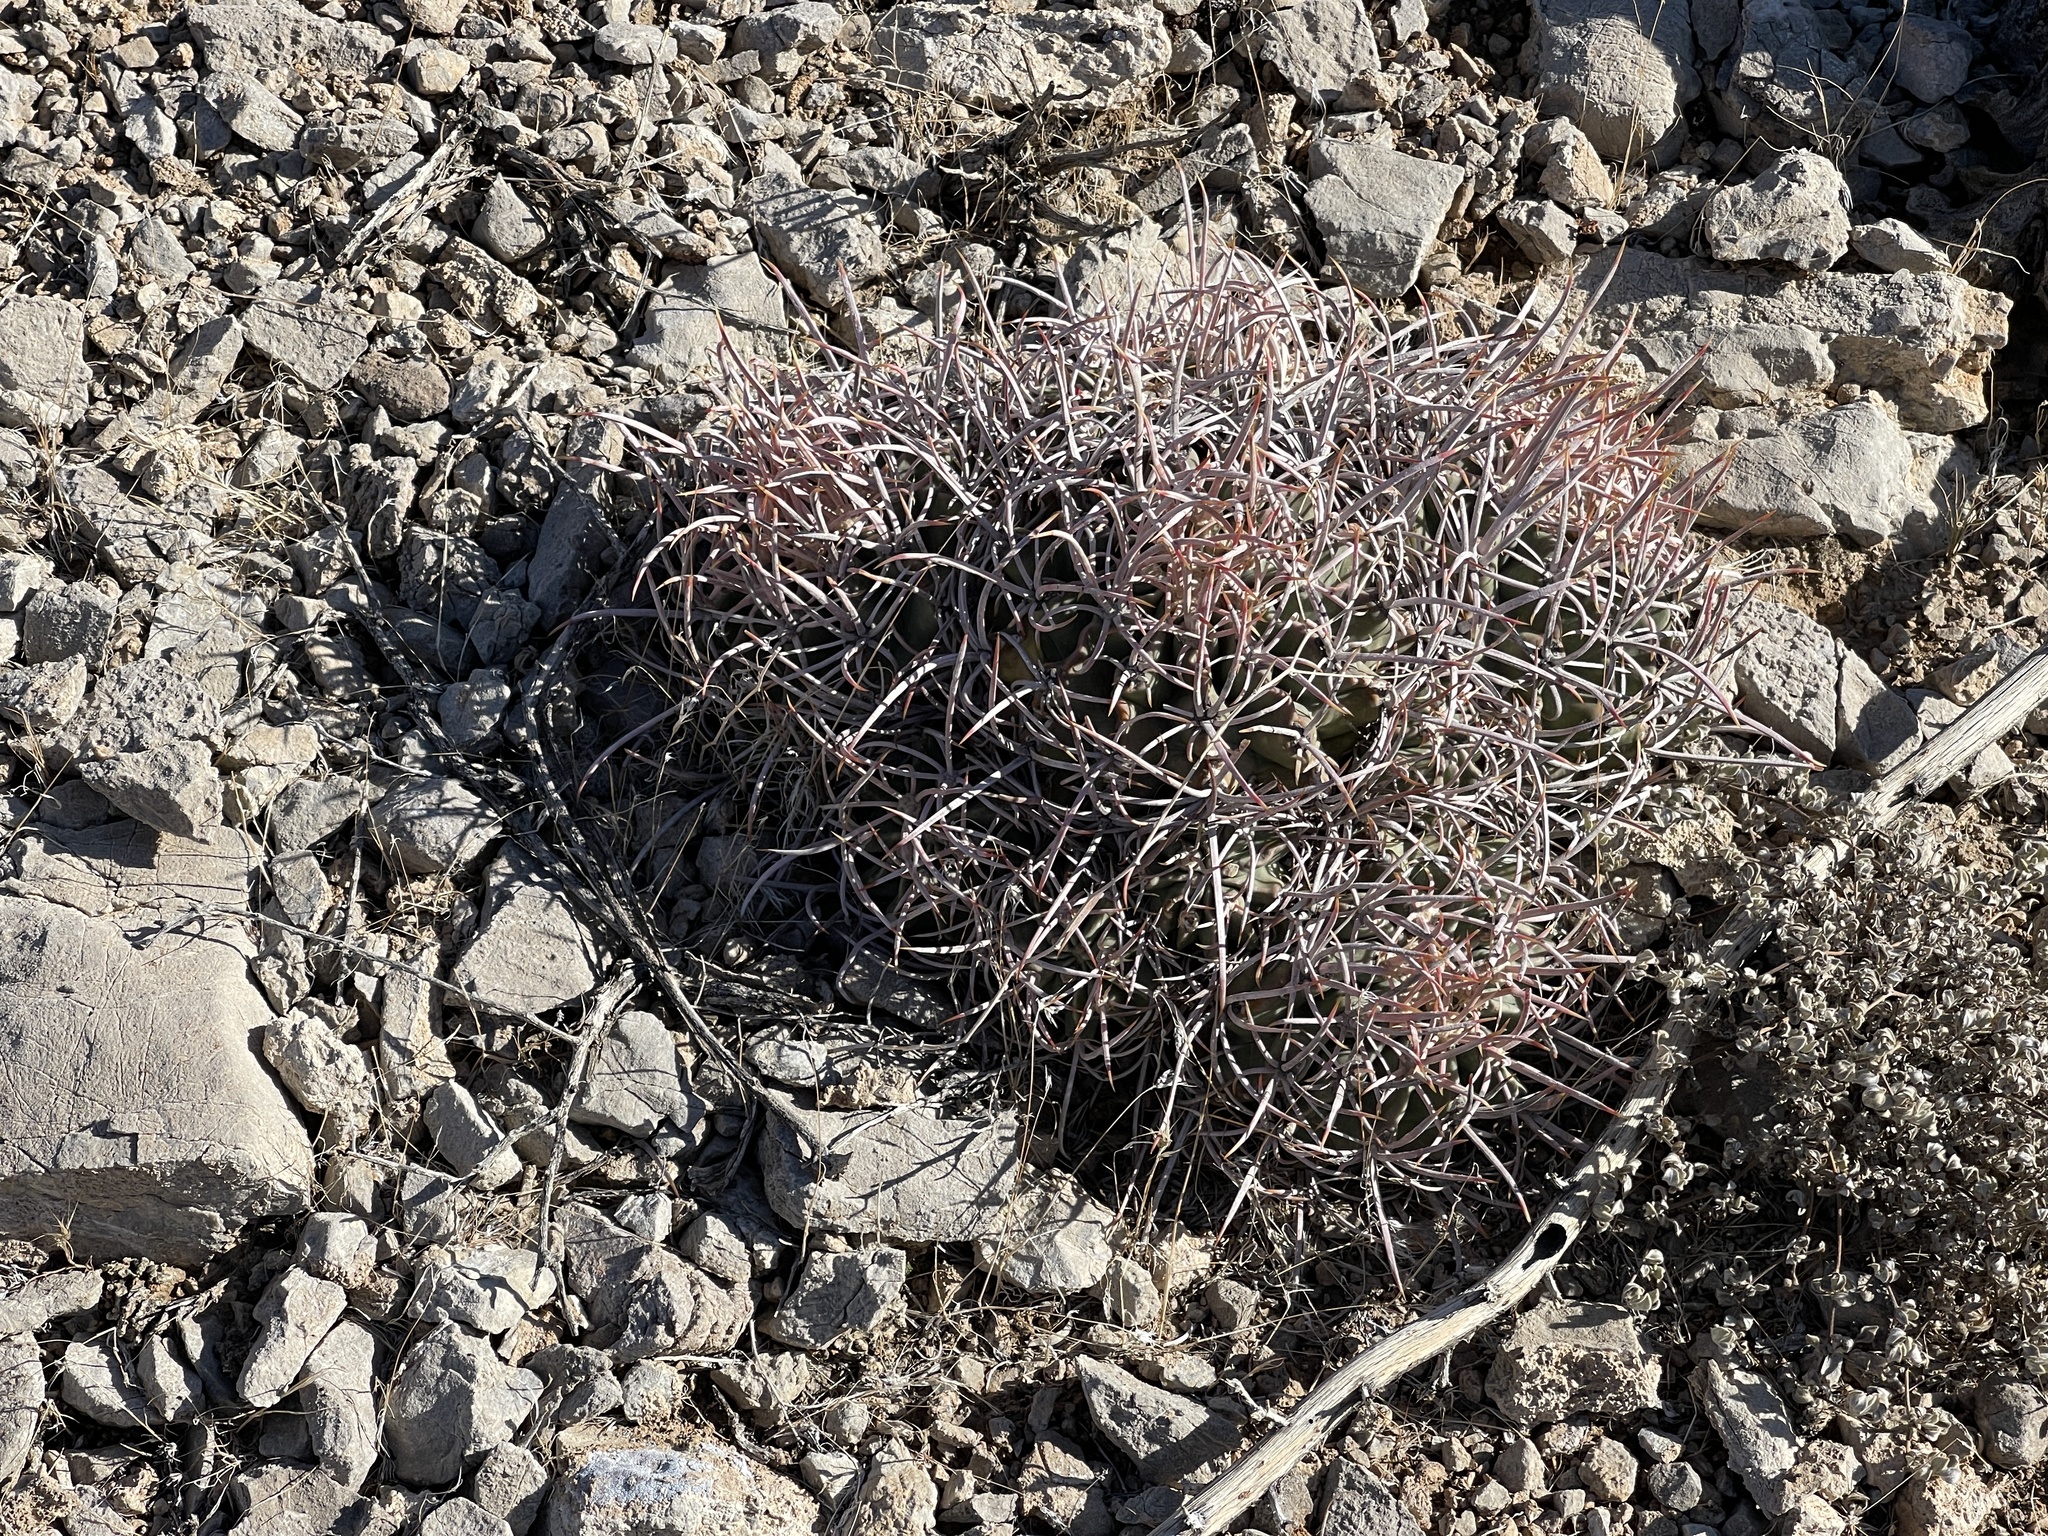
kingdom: Plantae
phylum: Tracheophyta
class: Magnoliopsida
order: Caryophyllales
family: Cactaceae
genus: Echinocactus
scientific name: Echinocactus polycephalus
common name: Cottontop cactus
